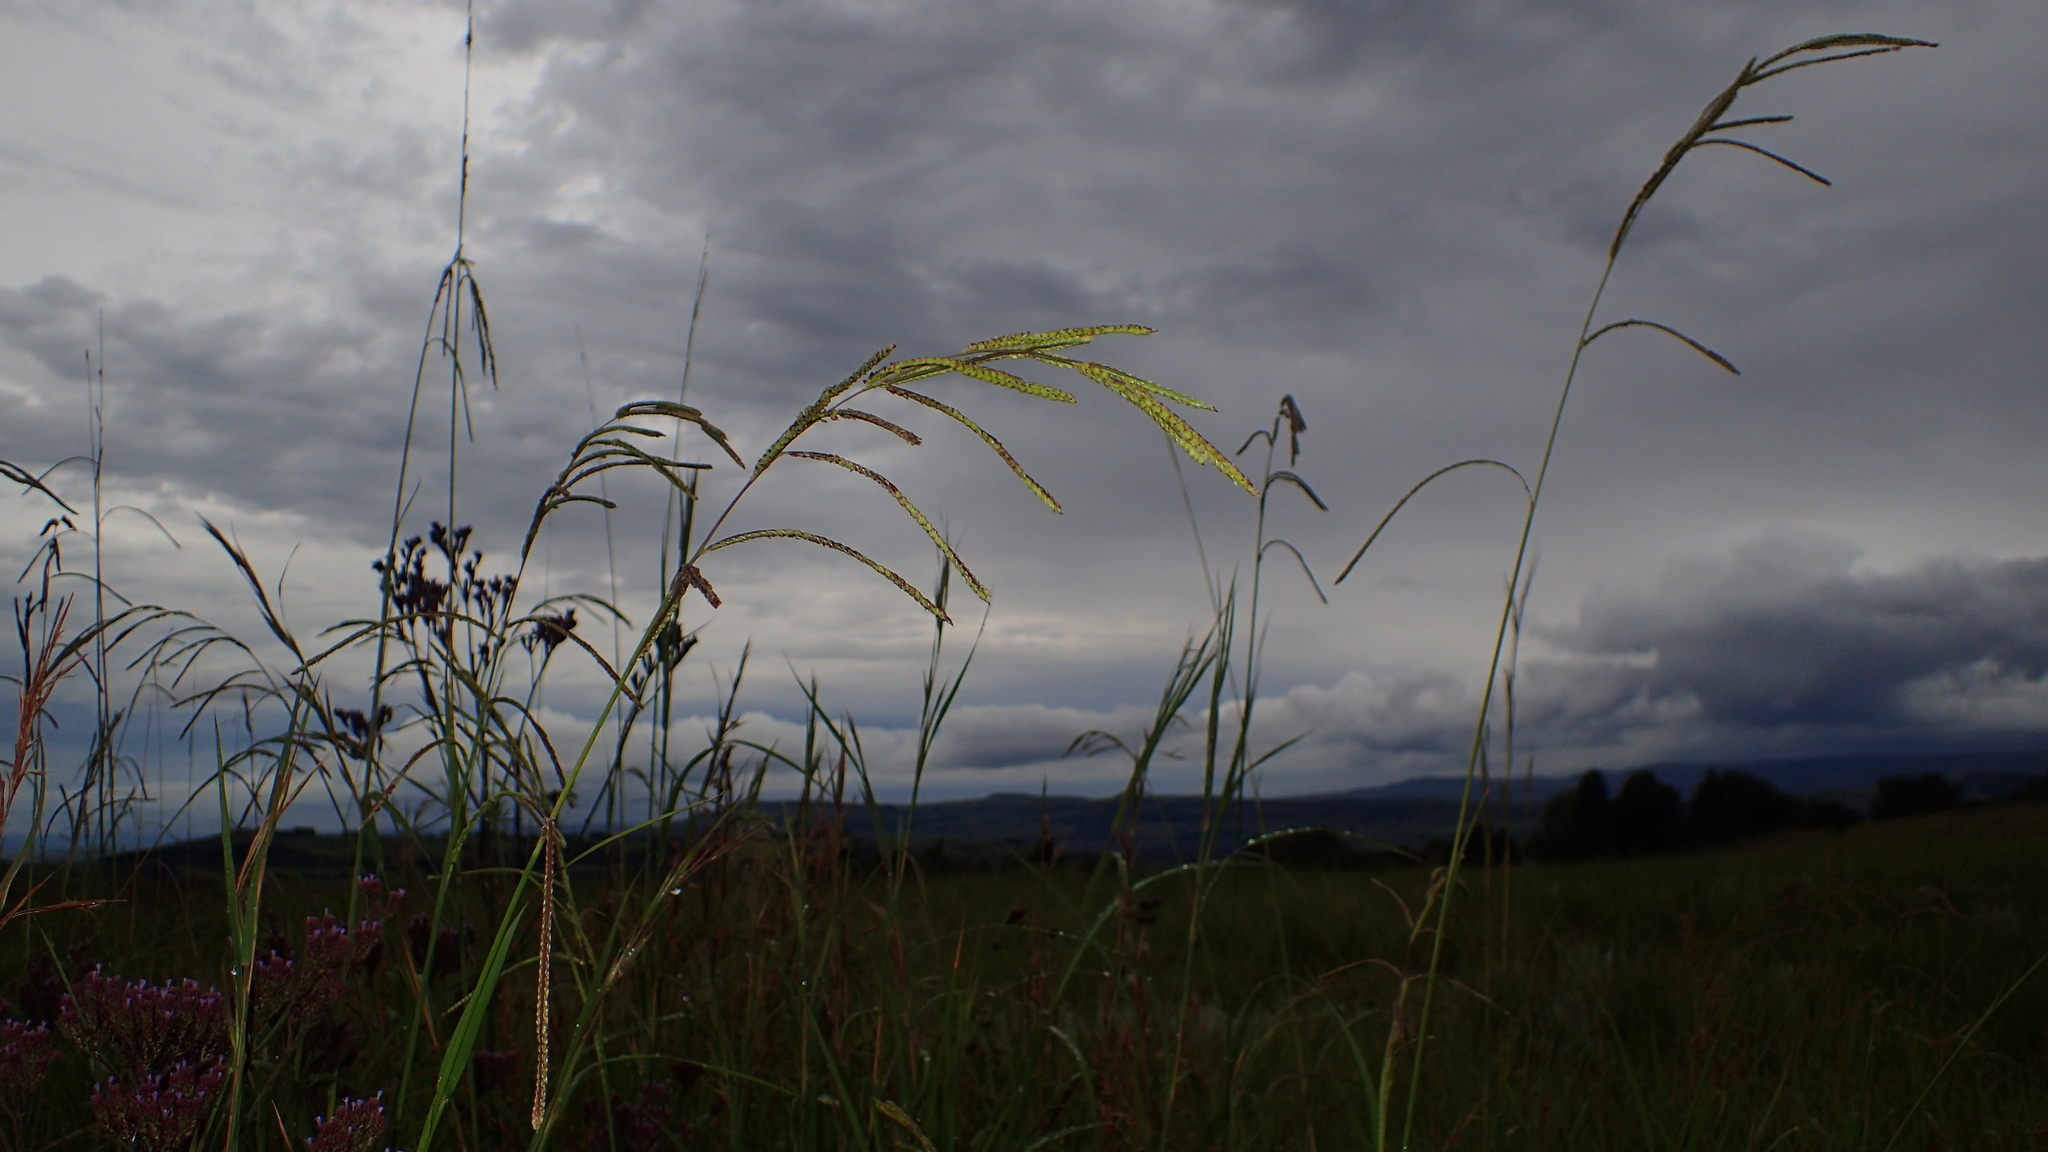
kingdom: Plantae
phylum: Tracheophyta
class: Liliopsida
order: Poales
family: Poaceae
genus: Paspalum
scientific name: Paspalum urvillei
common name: Vasey's grass
